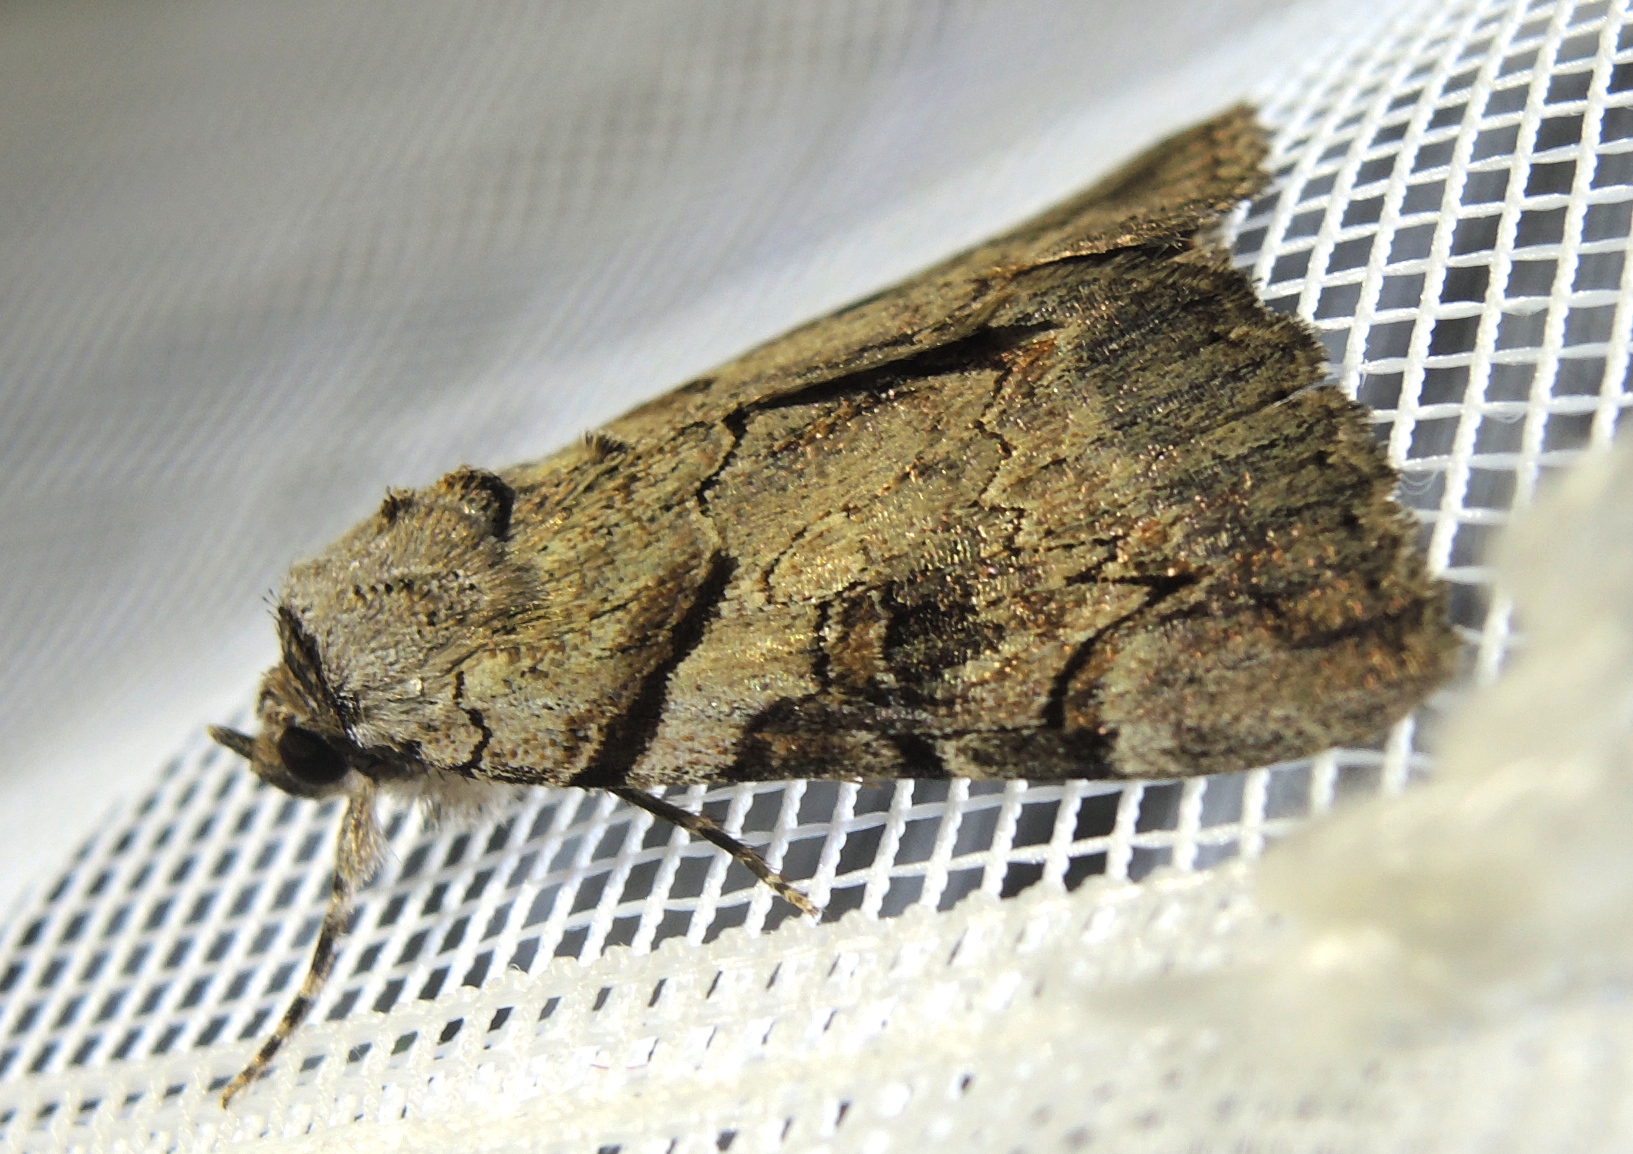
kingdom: Animalia
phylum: Arthropoda
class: Insecta
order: Lepidoptera
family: Erebidae
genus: Catocala
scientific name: Catocala hymenaea
